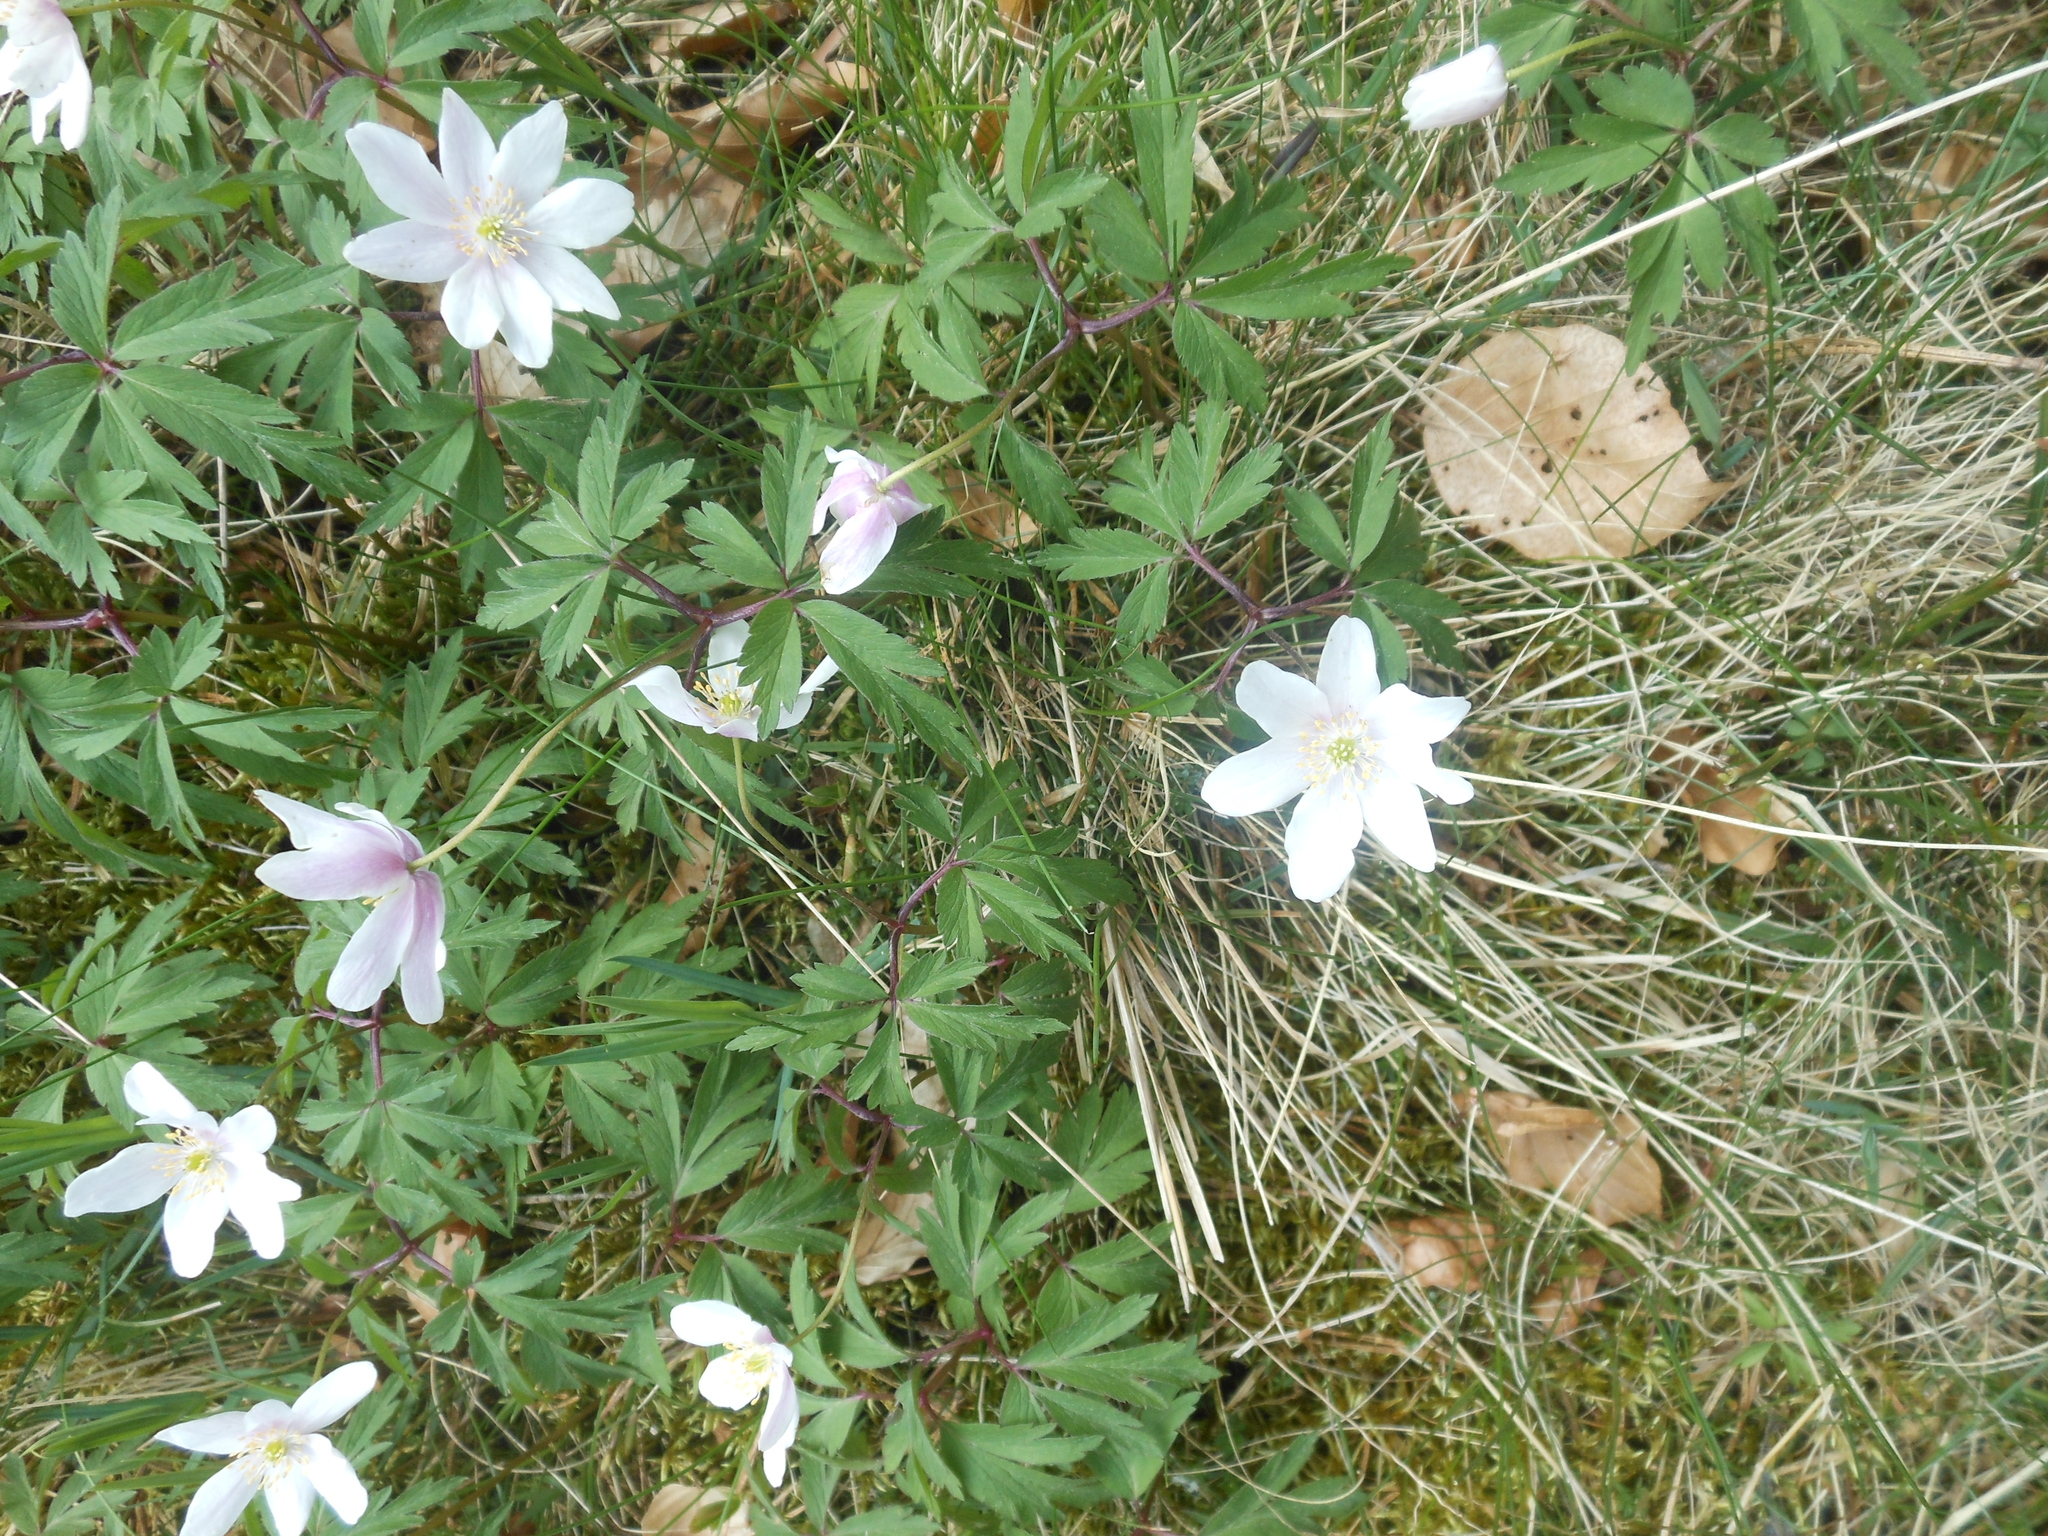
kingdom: Plantae
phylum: Tracheophyta
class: Magnoliopsida
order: Ranunculales
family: Ranunculaceae
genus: Anemone
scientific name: Anemone nemorosa
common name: Wood anemone
